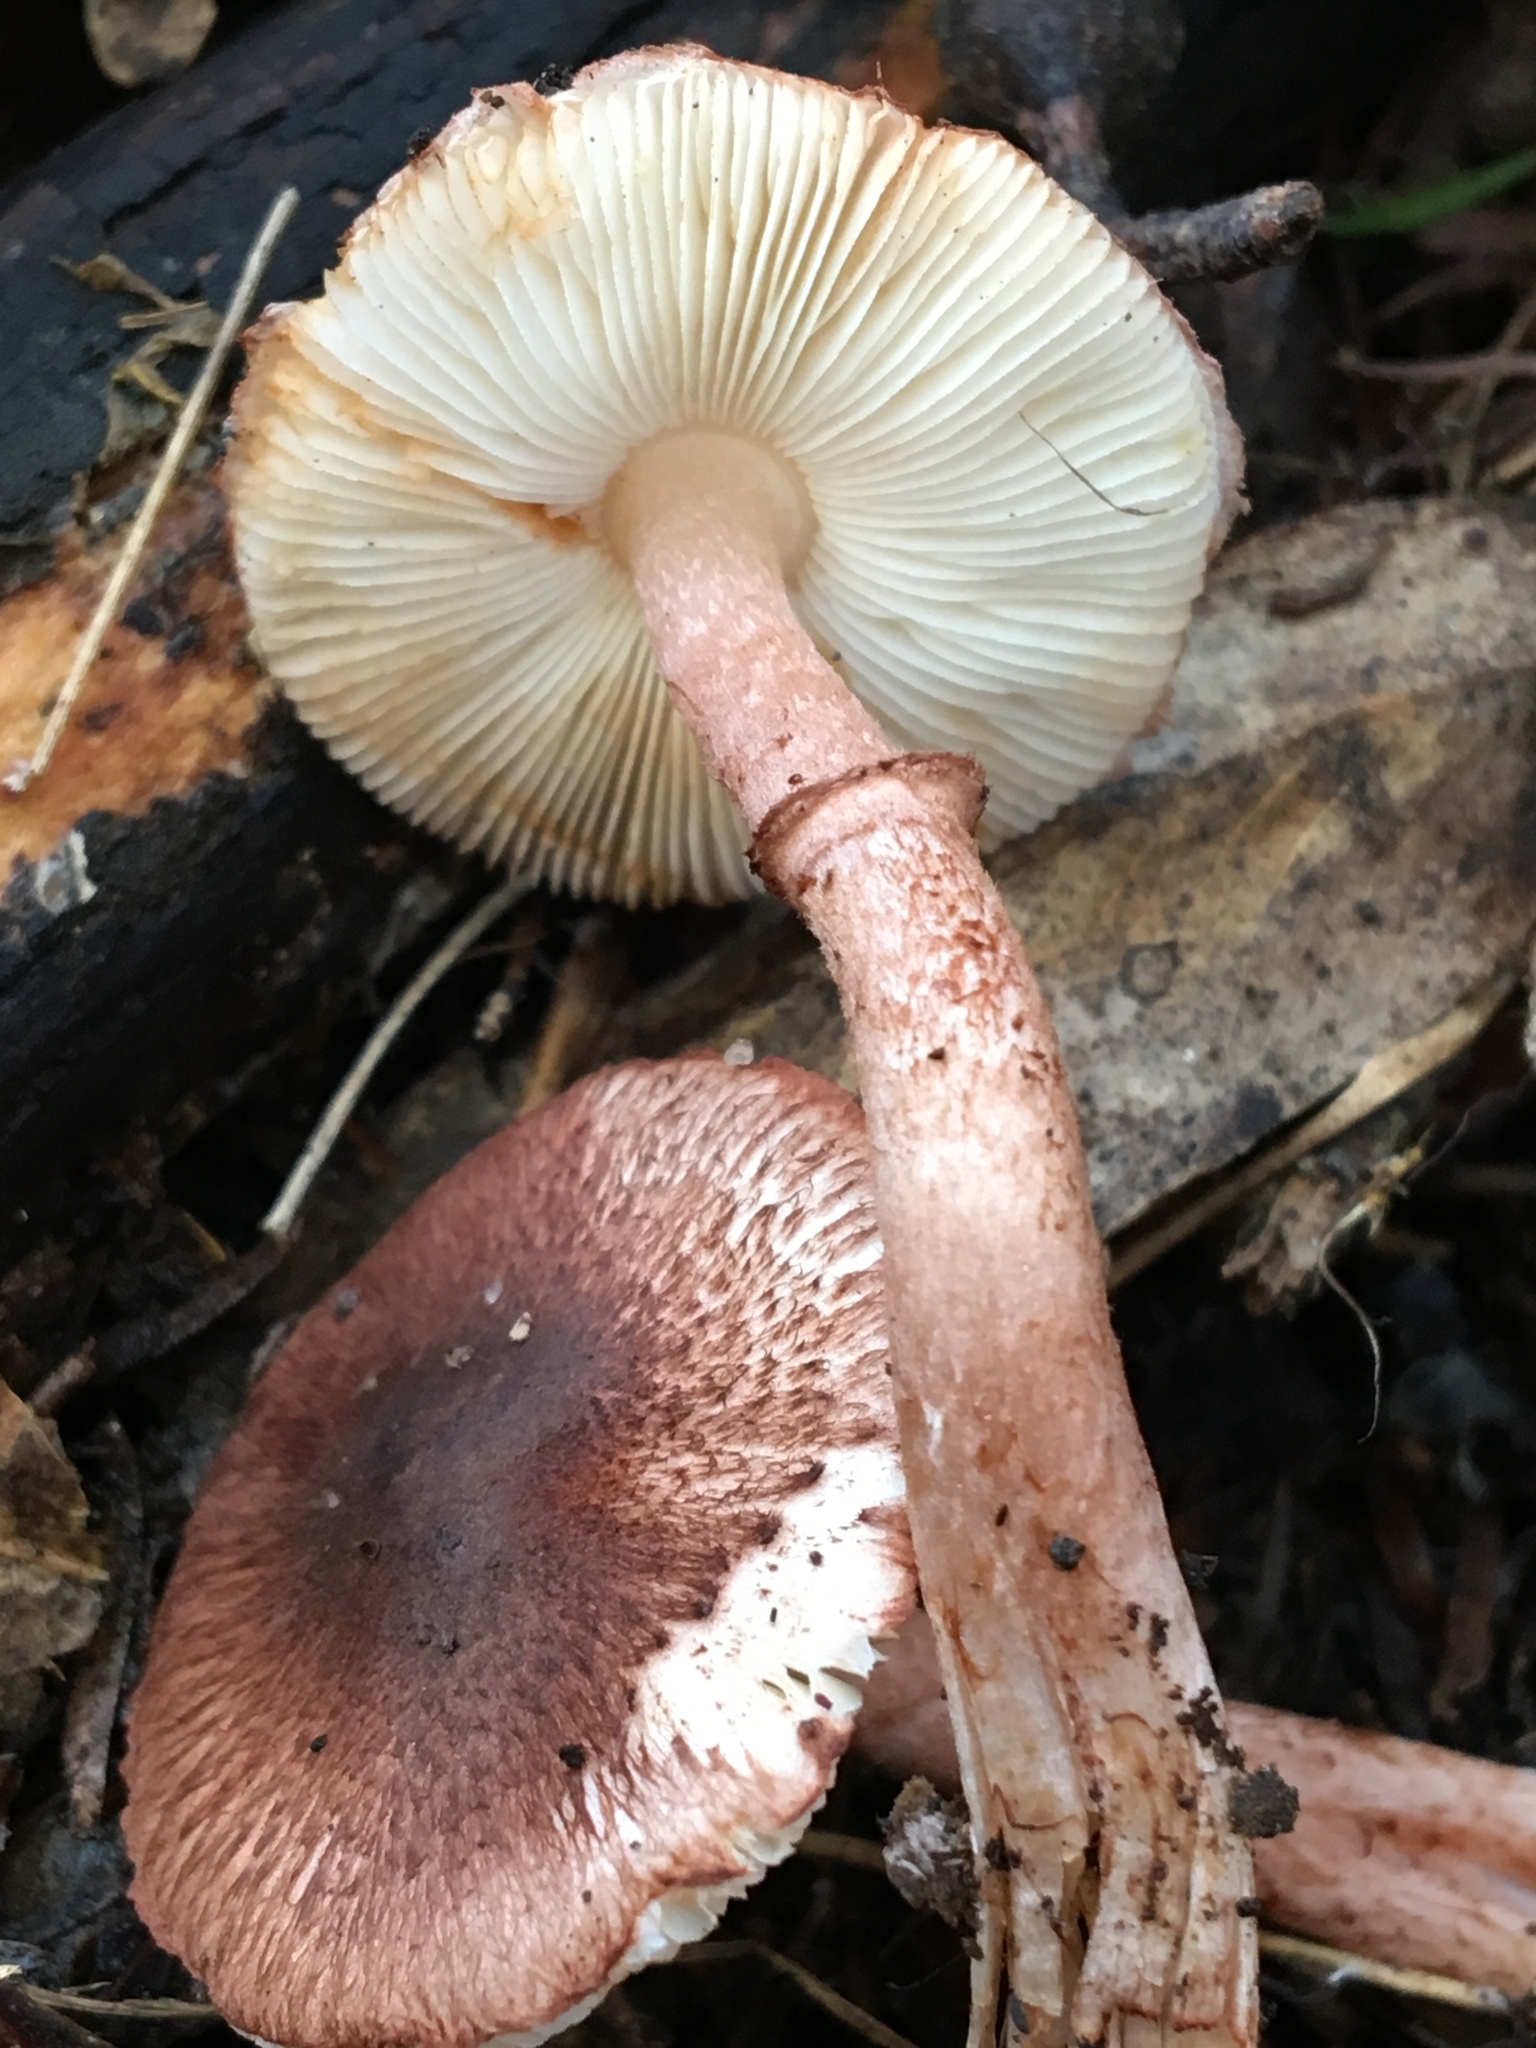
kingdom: Fungi
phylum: Basidiomycota
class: Agaricomycetes
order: Agaricales
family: Agaricaceae
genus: Lepiota
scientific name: Lepiota haemorrhagica
